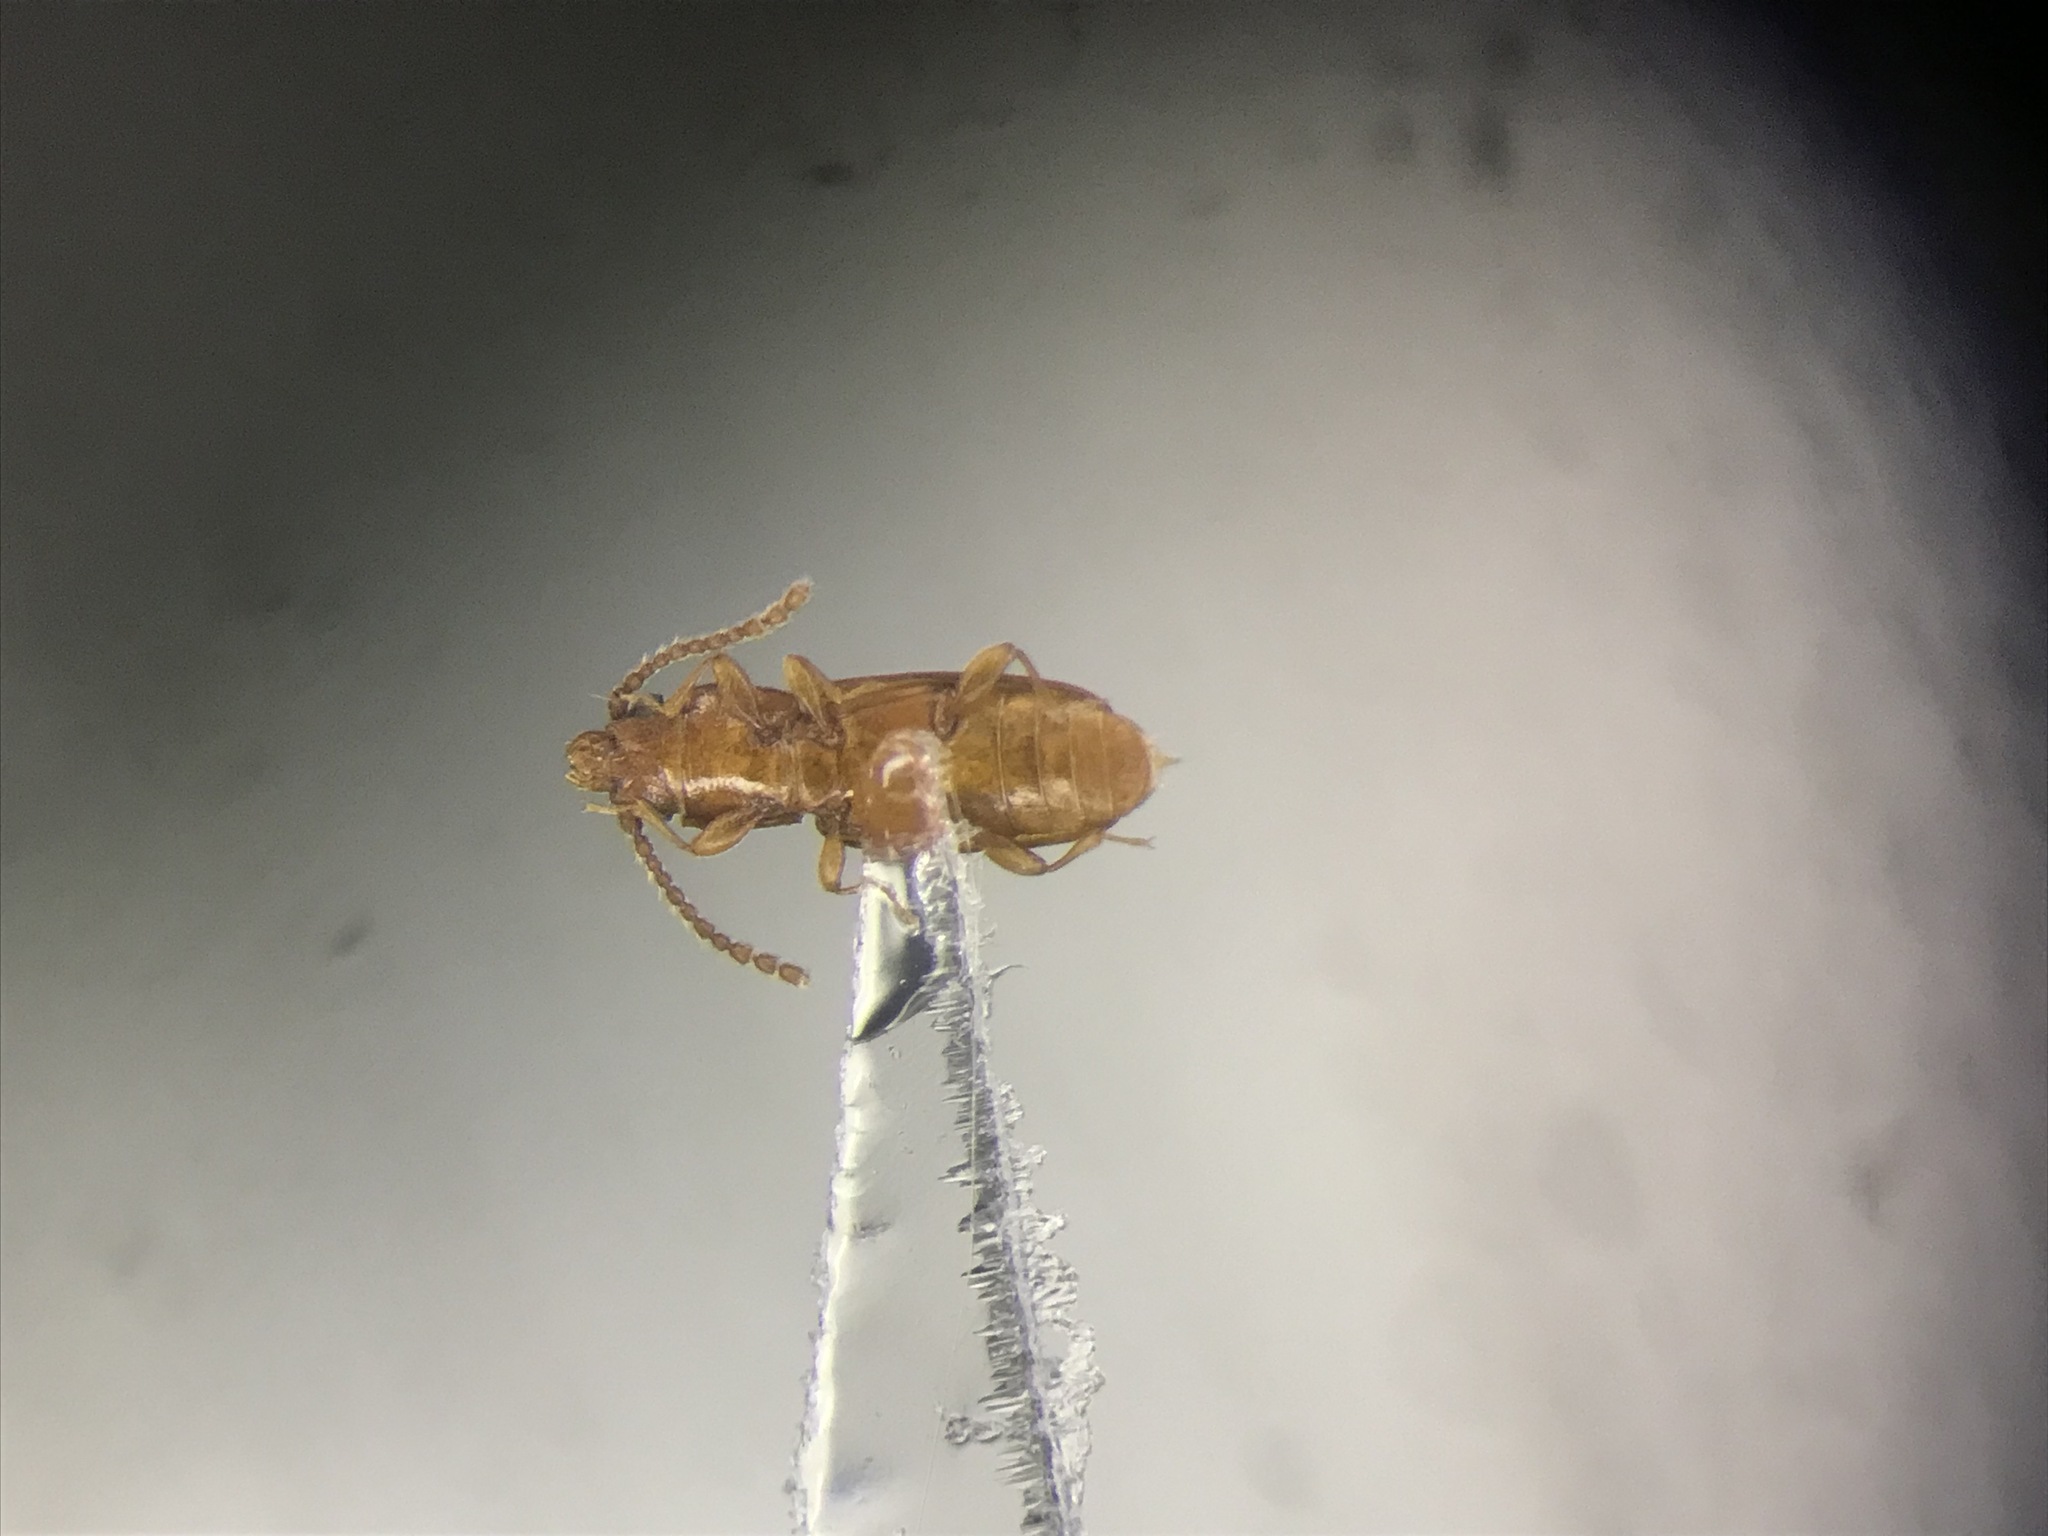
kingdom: Animalia
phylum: Arthropoda
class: Insecta
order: Coleoptera
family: Laemophloeidae
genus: Placonotus
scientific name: Placonotus zimmermanni
